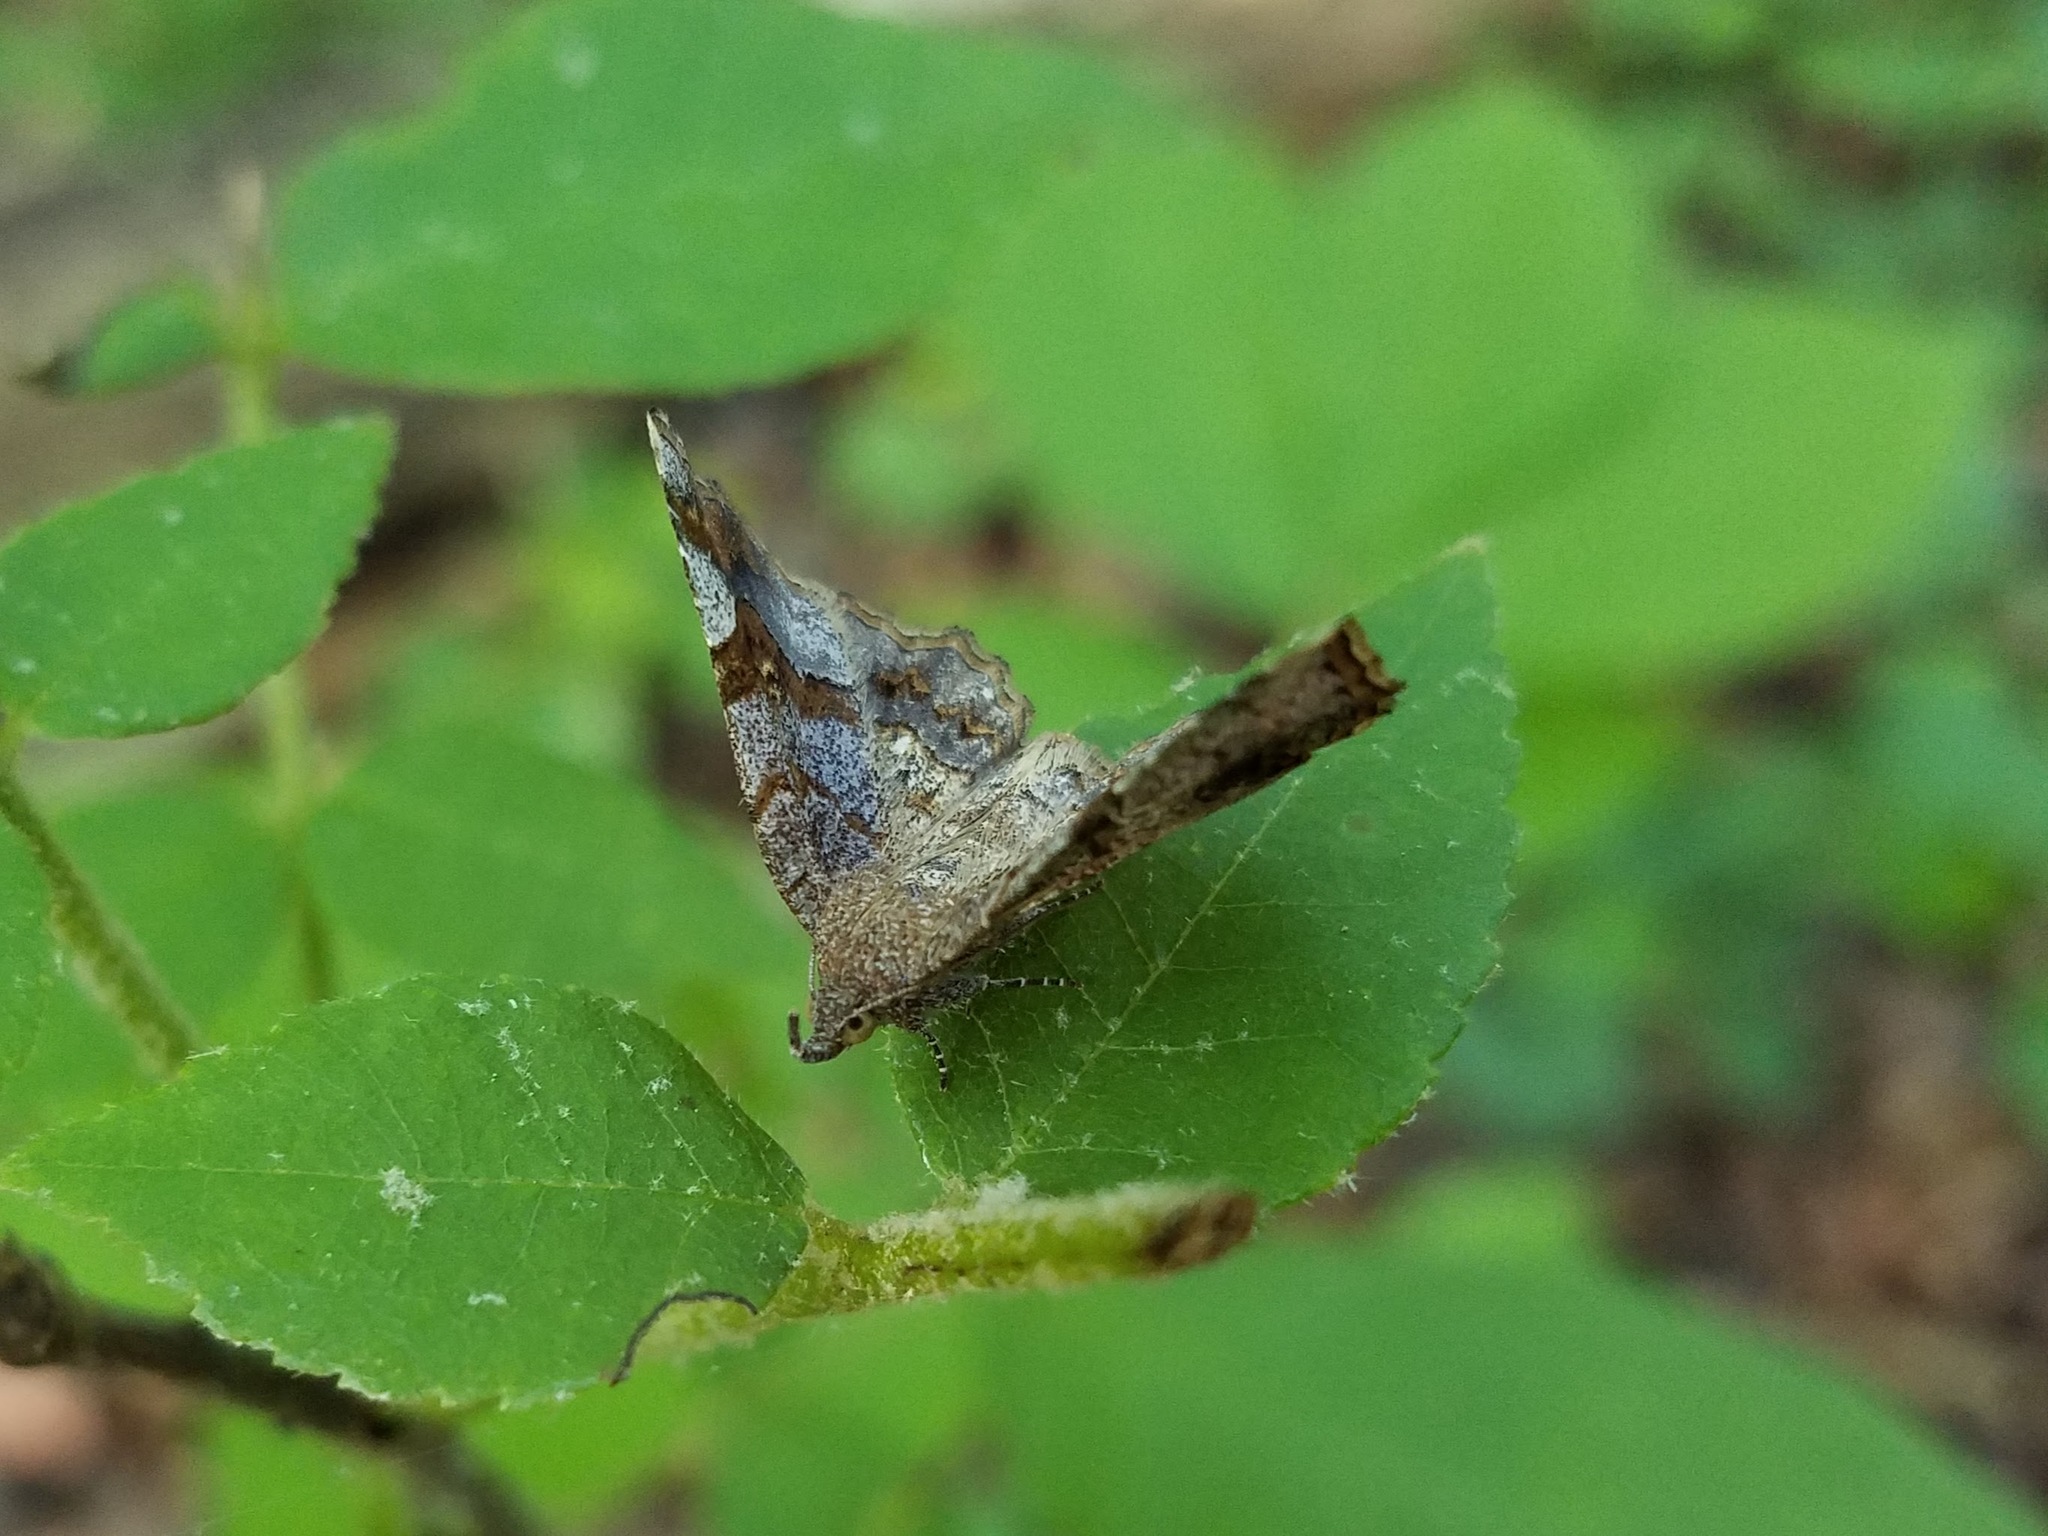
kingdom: Animalia
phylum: Arthropoda
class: Insecta
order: Lepidoptera
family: Erebidae
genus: Pangrapta
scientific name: Pangrapta decoralis
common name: Decorated owlet
